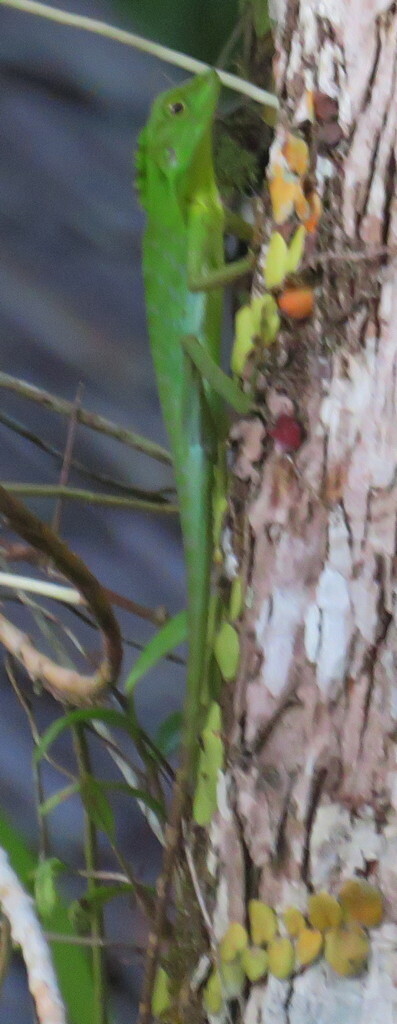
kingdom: Animalia
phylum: Chordata
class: Squamata
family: Agamidae
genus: Bronchocela
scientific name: Bronchocela cristatella
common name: Green crested lizard
